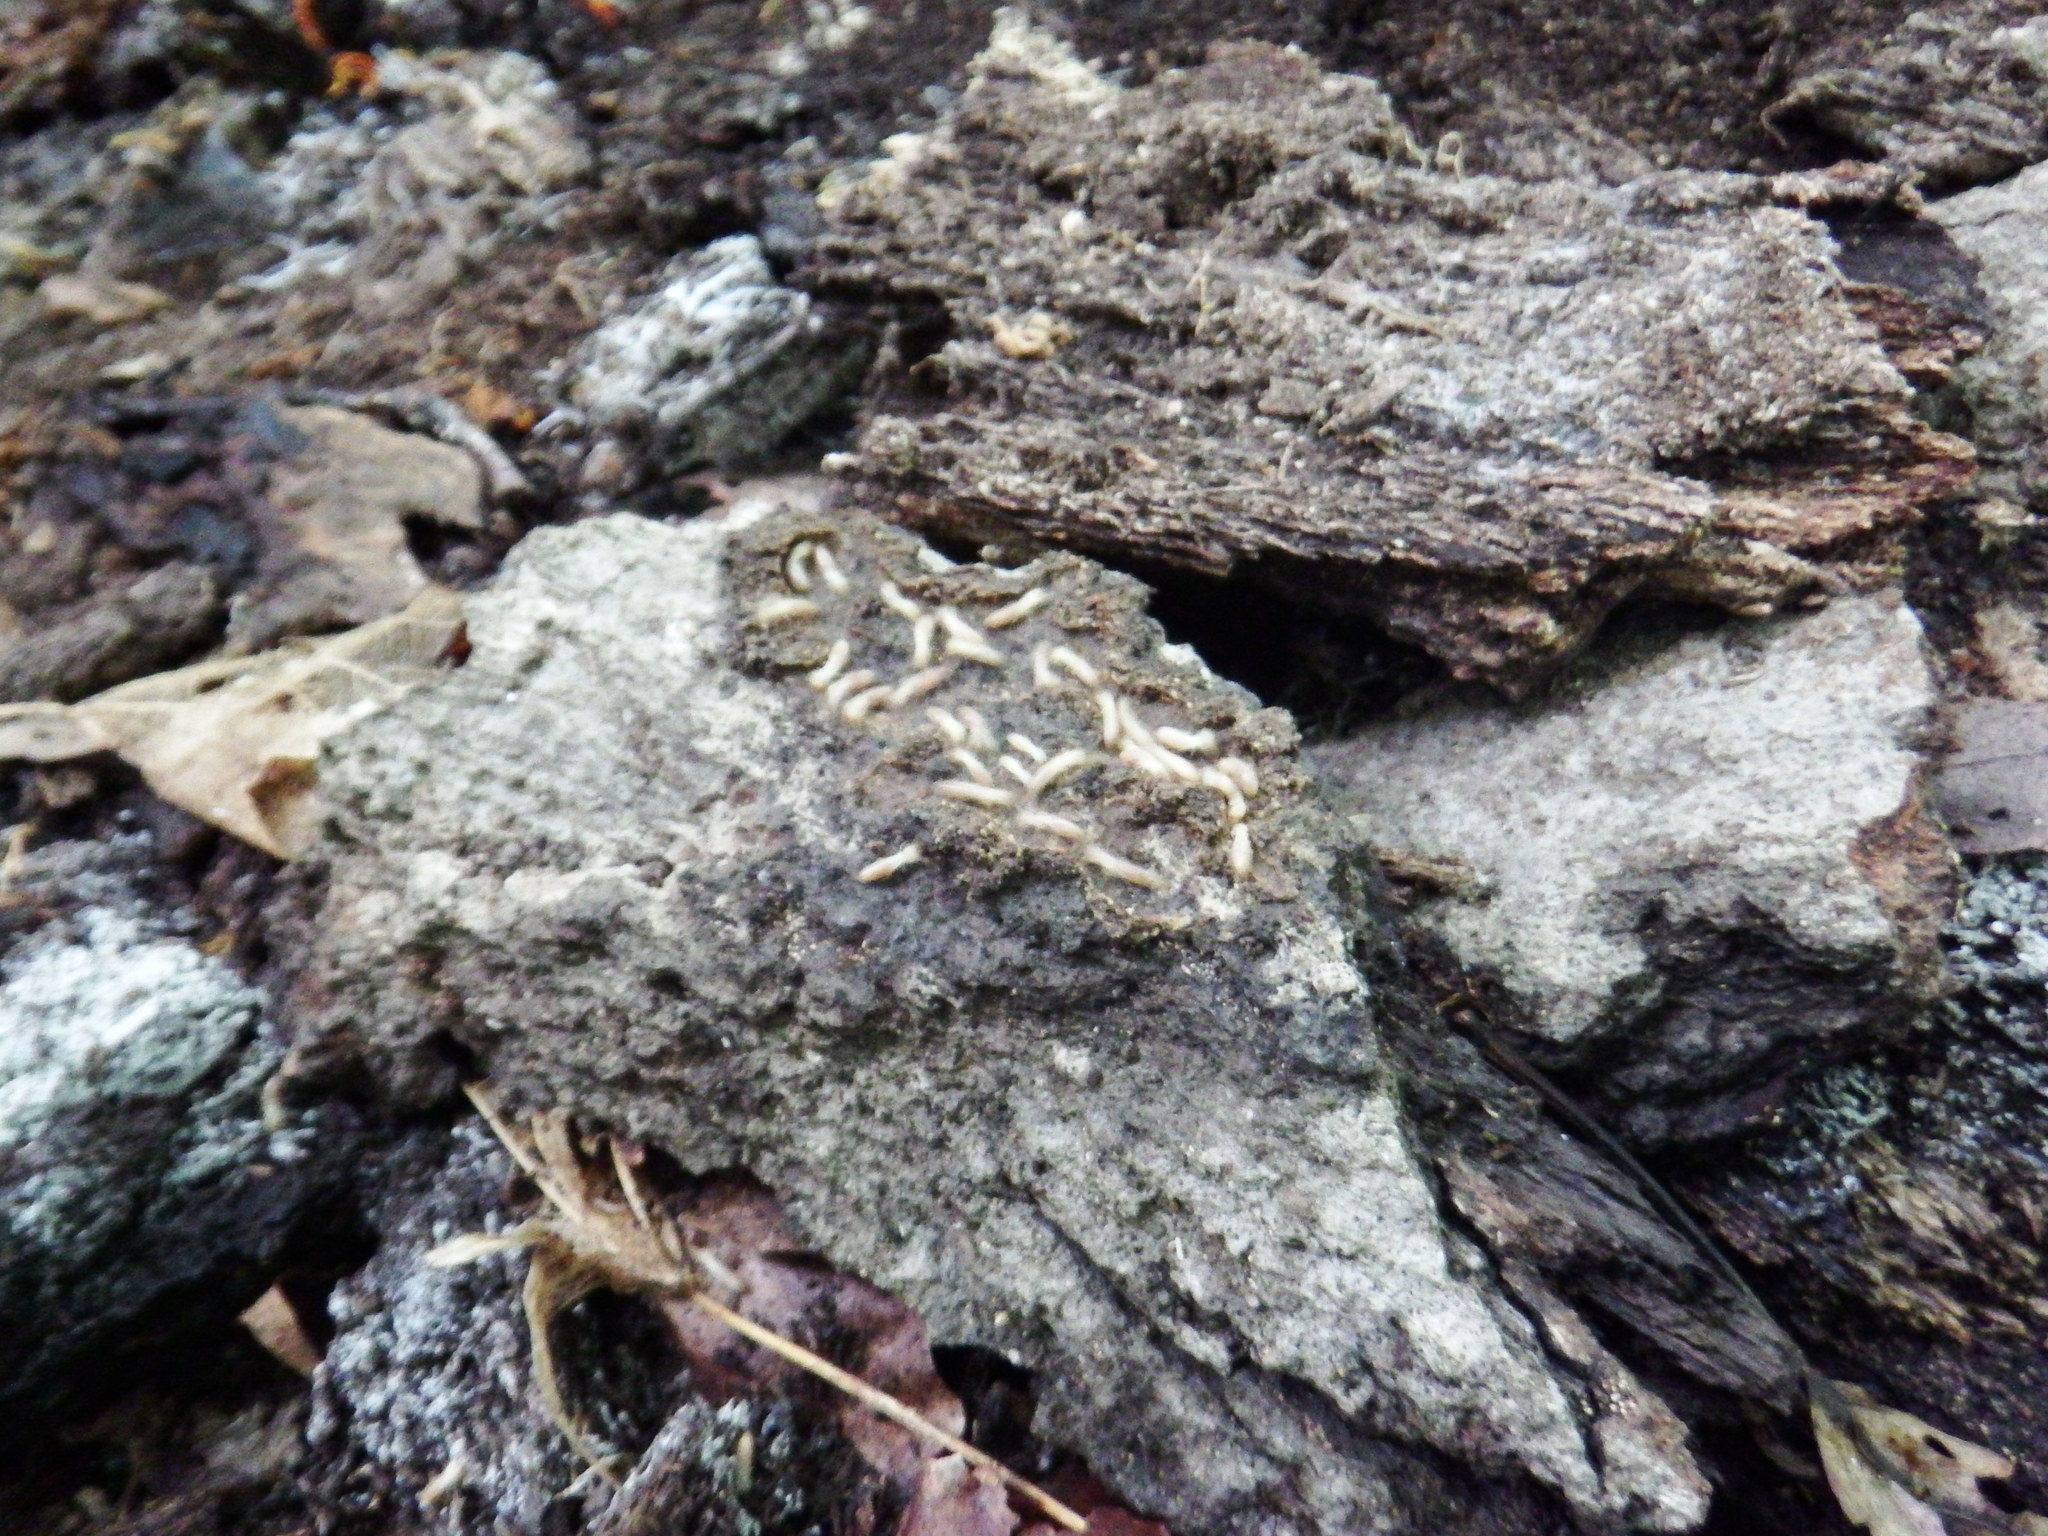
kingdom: Animalia
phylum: Arthropoda
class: Insecta
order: Blattodea
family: Rhinotermitidae
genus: Reticulitermes
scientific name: Reticulitermes flavipes
